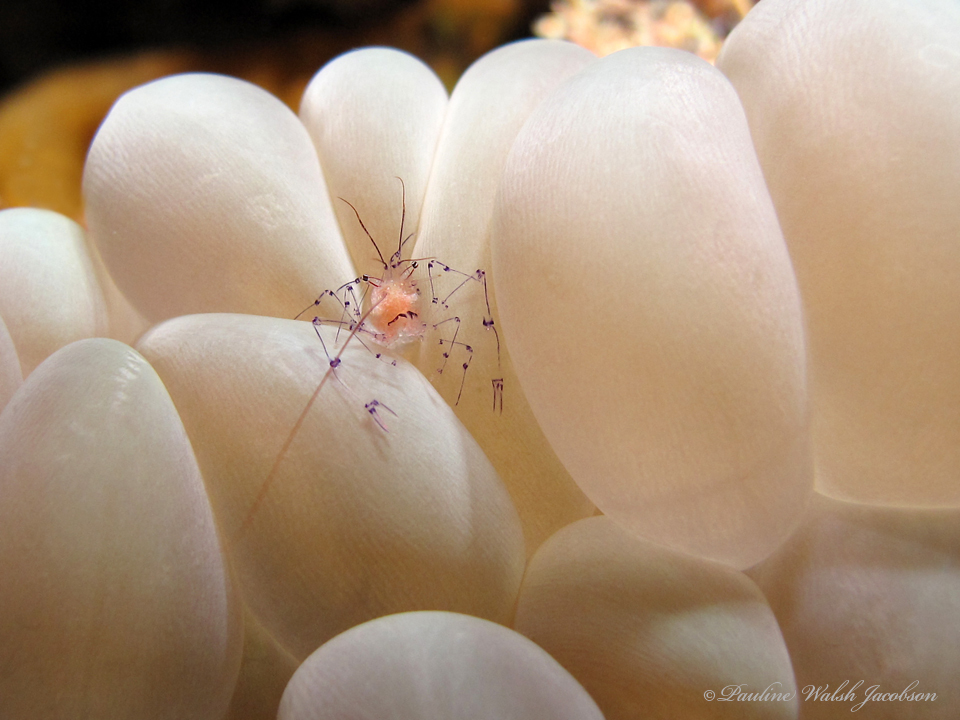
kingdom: Animalia
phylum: Arthropoda
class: Malacostraca
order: Decapoda
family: Palaemonidae
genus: Vir
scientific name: Vir philippinensis
